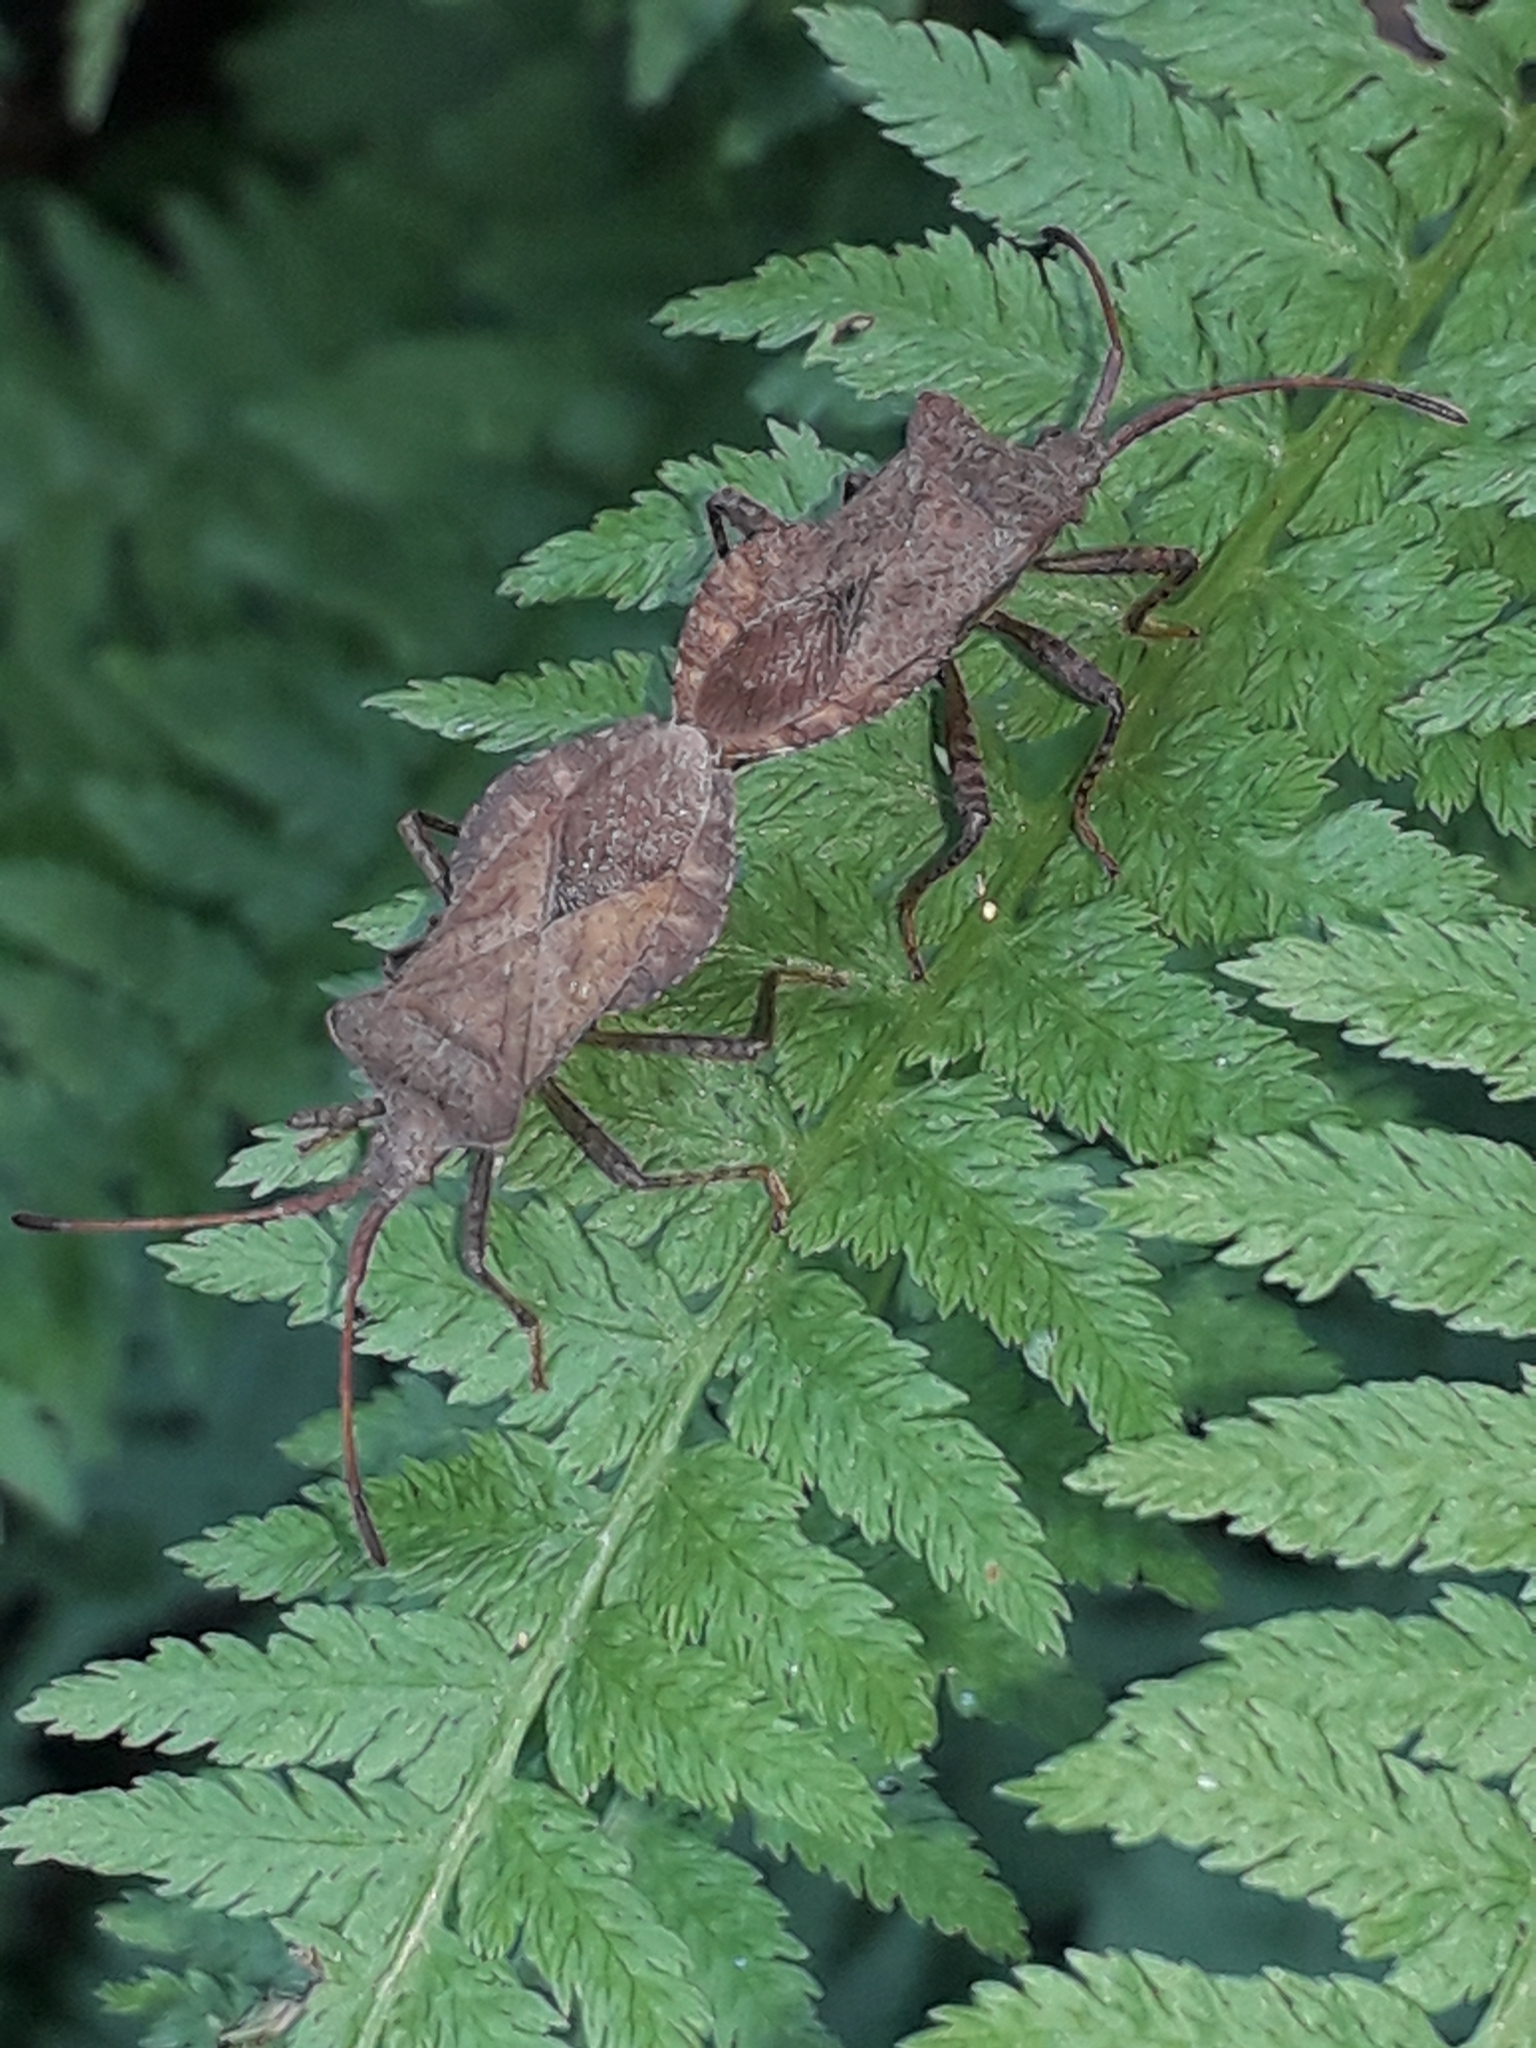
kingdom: Animalia
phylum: Arthropoda
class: Insecta
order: Hemiptera
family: Coreidae
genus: Coreus
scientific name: Coreus marginatus
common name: Dock bug
